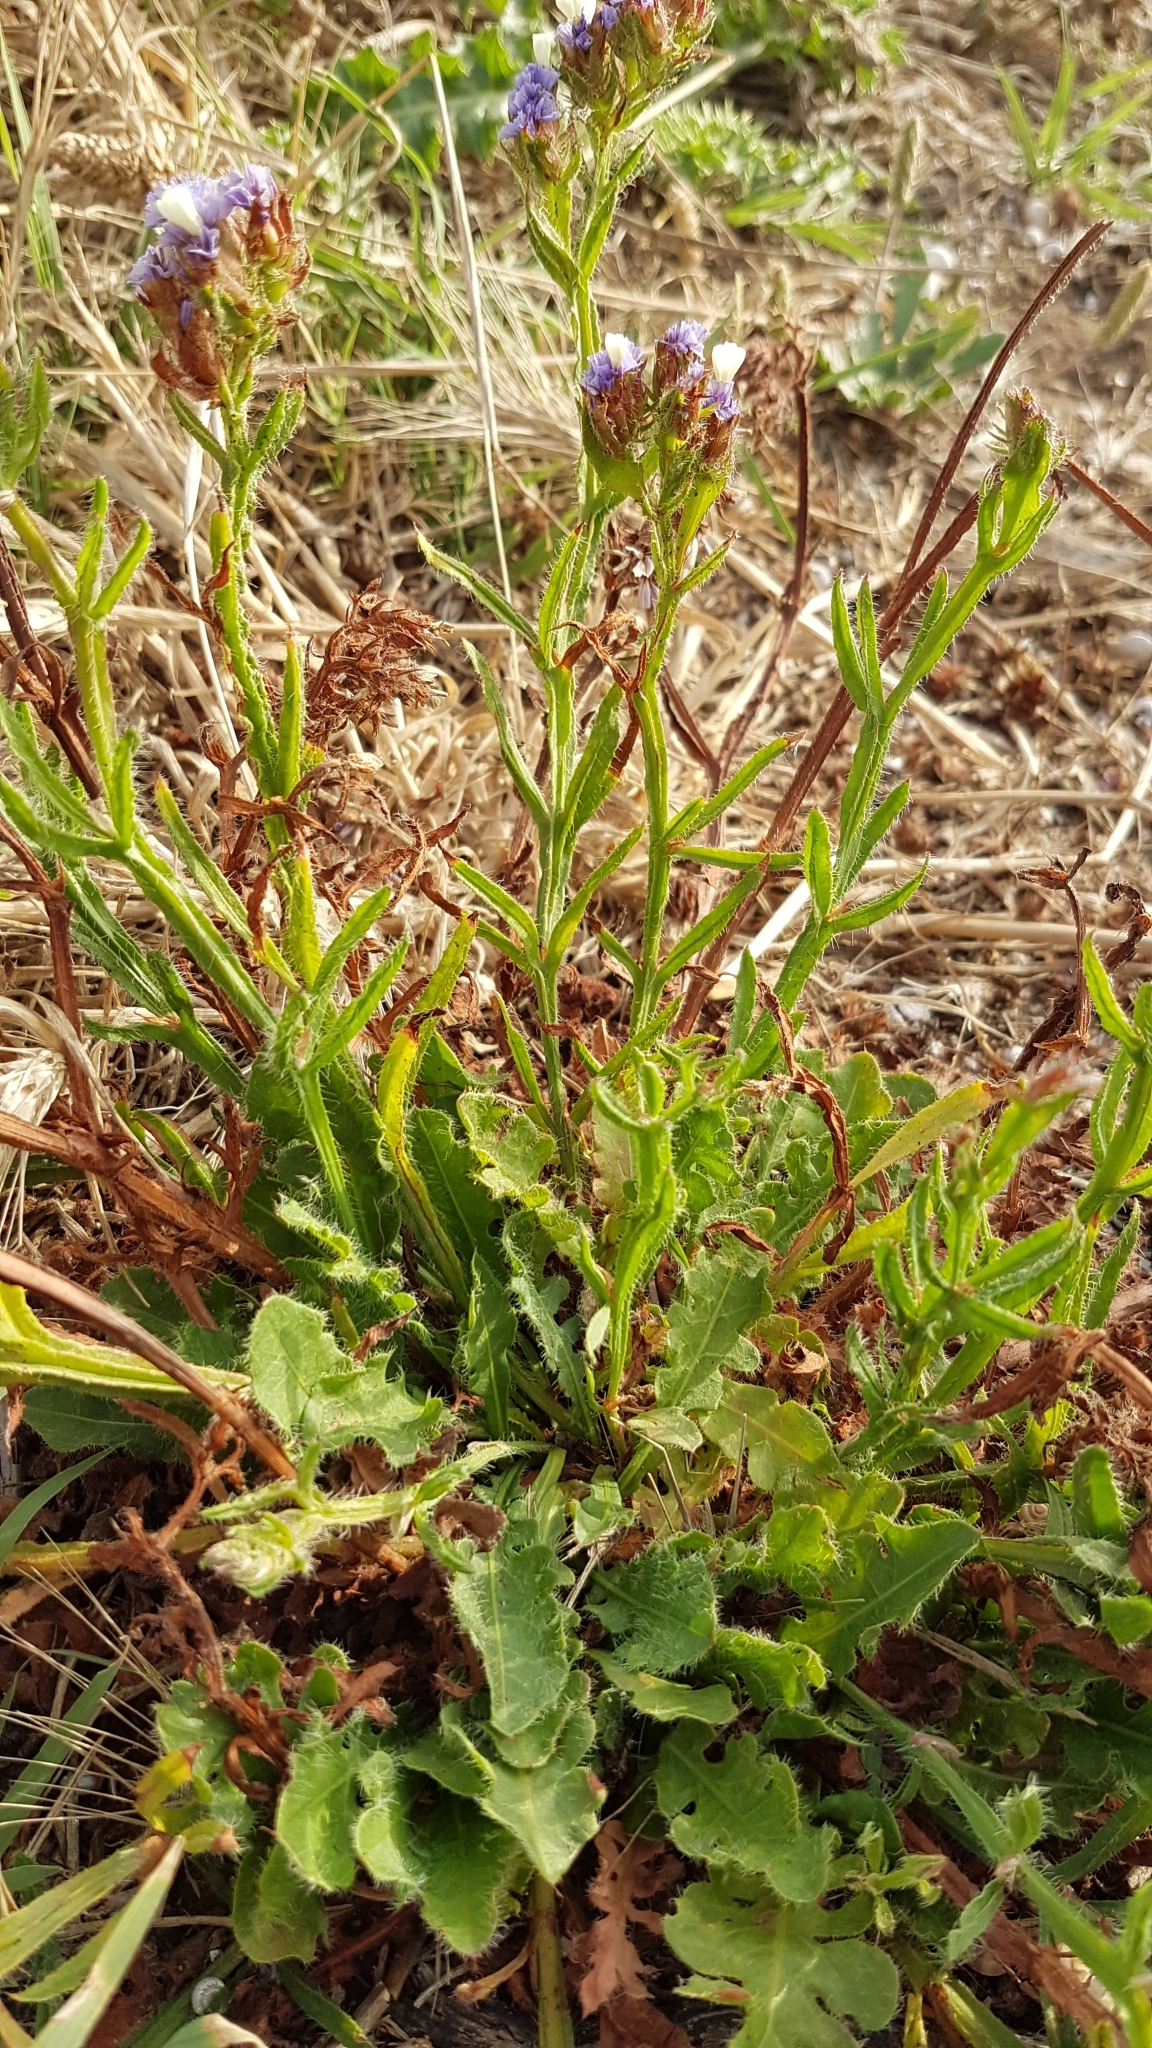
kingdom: Plantae
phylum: Tracheophyta
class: Magnoliopsida
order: Caryophyllales
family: Plumbaginaceae
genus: Limonium
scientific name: Limonium sinuatum
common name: Statice
